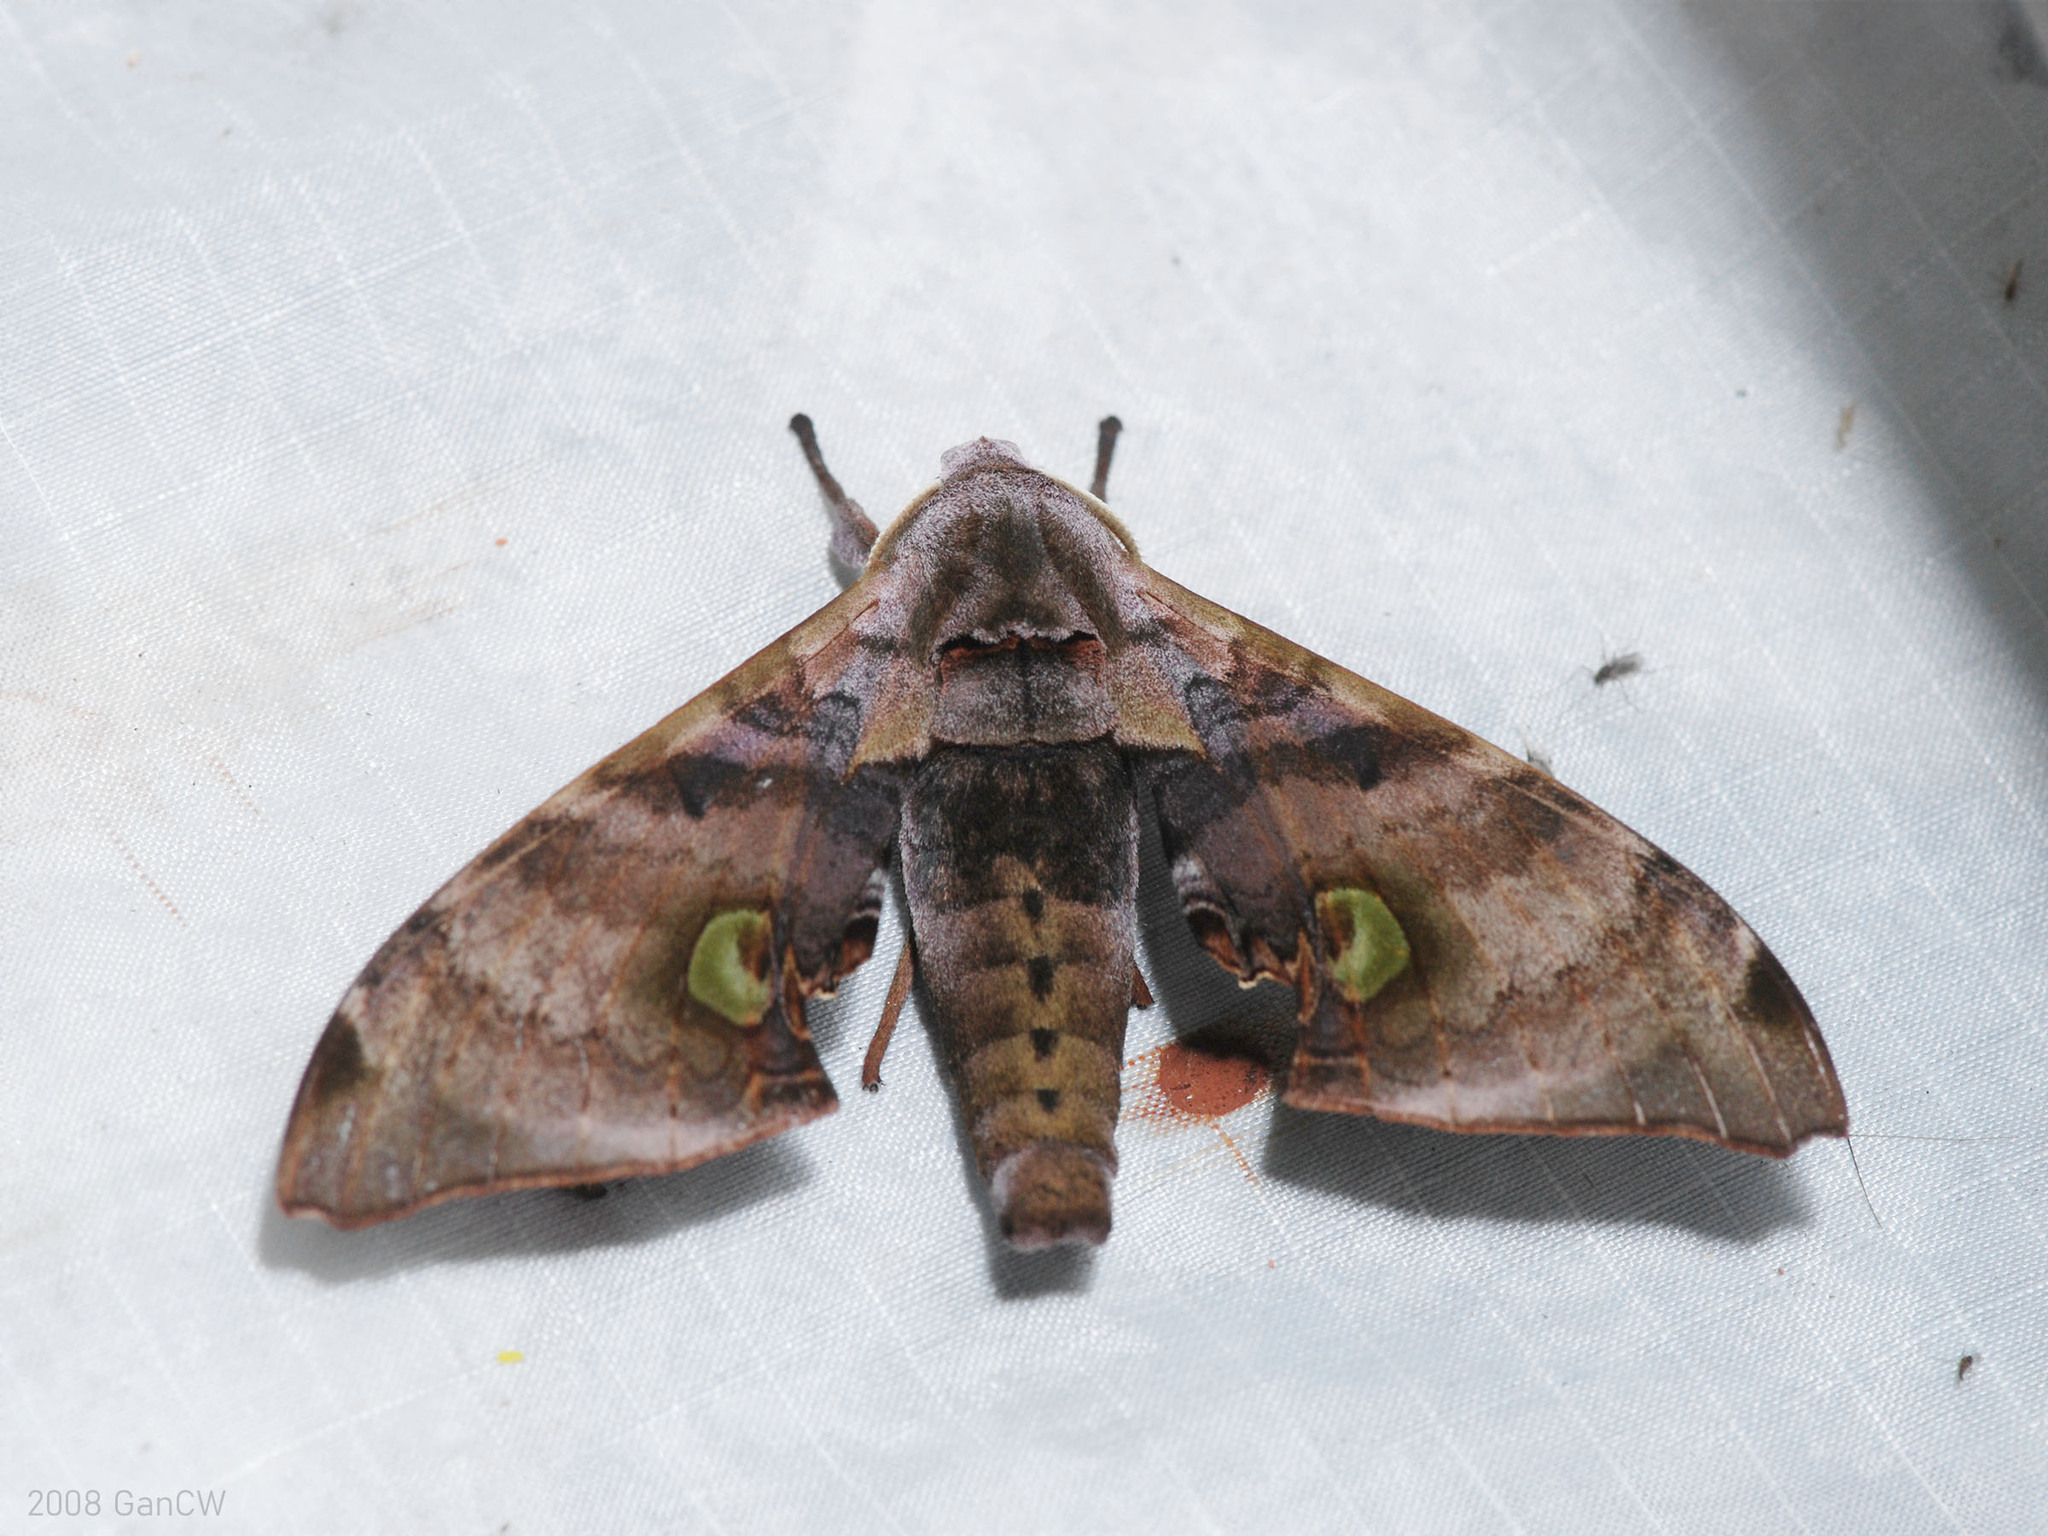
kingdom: Animalia
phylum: Arthropoda
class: Insecta
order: Lepidoptera
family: Sphingidae
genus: Daphnusa
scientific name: Daphnusa ocellaris
